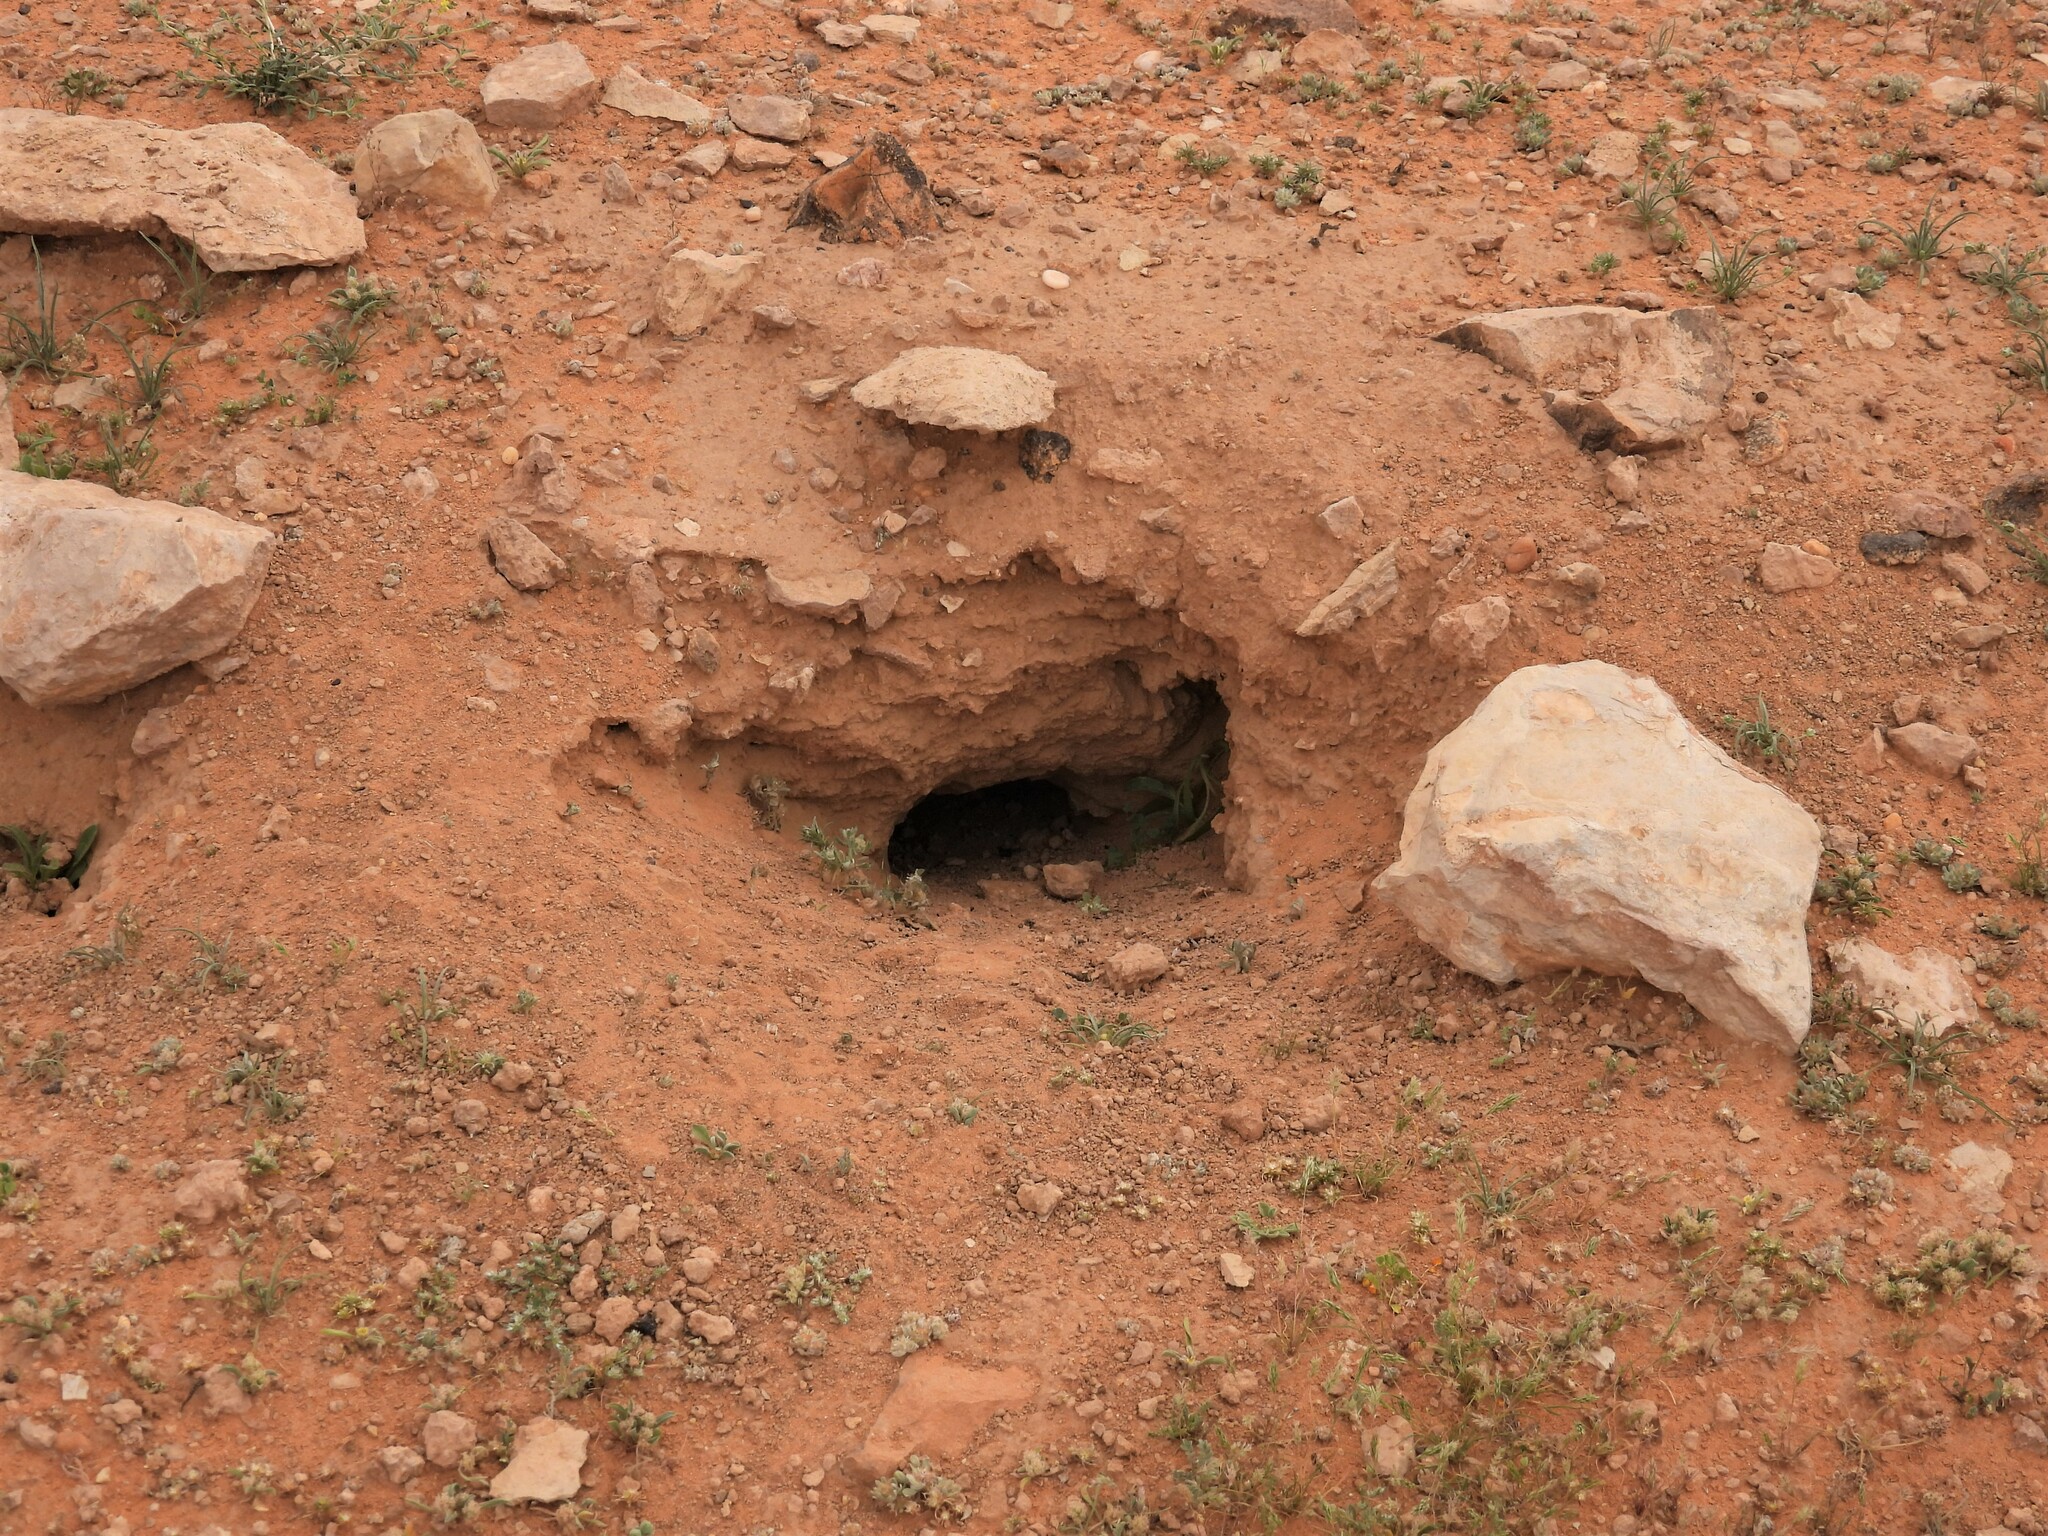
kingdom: Animalia
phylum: Chordata
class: Squamata
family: Agamidae
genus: Uromastyx
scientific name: Uromastyx aegyptia
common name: Egyptian mastigure
